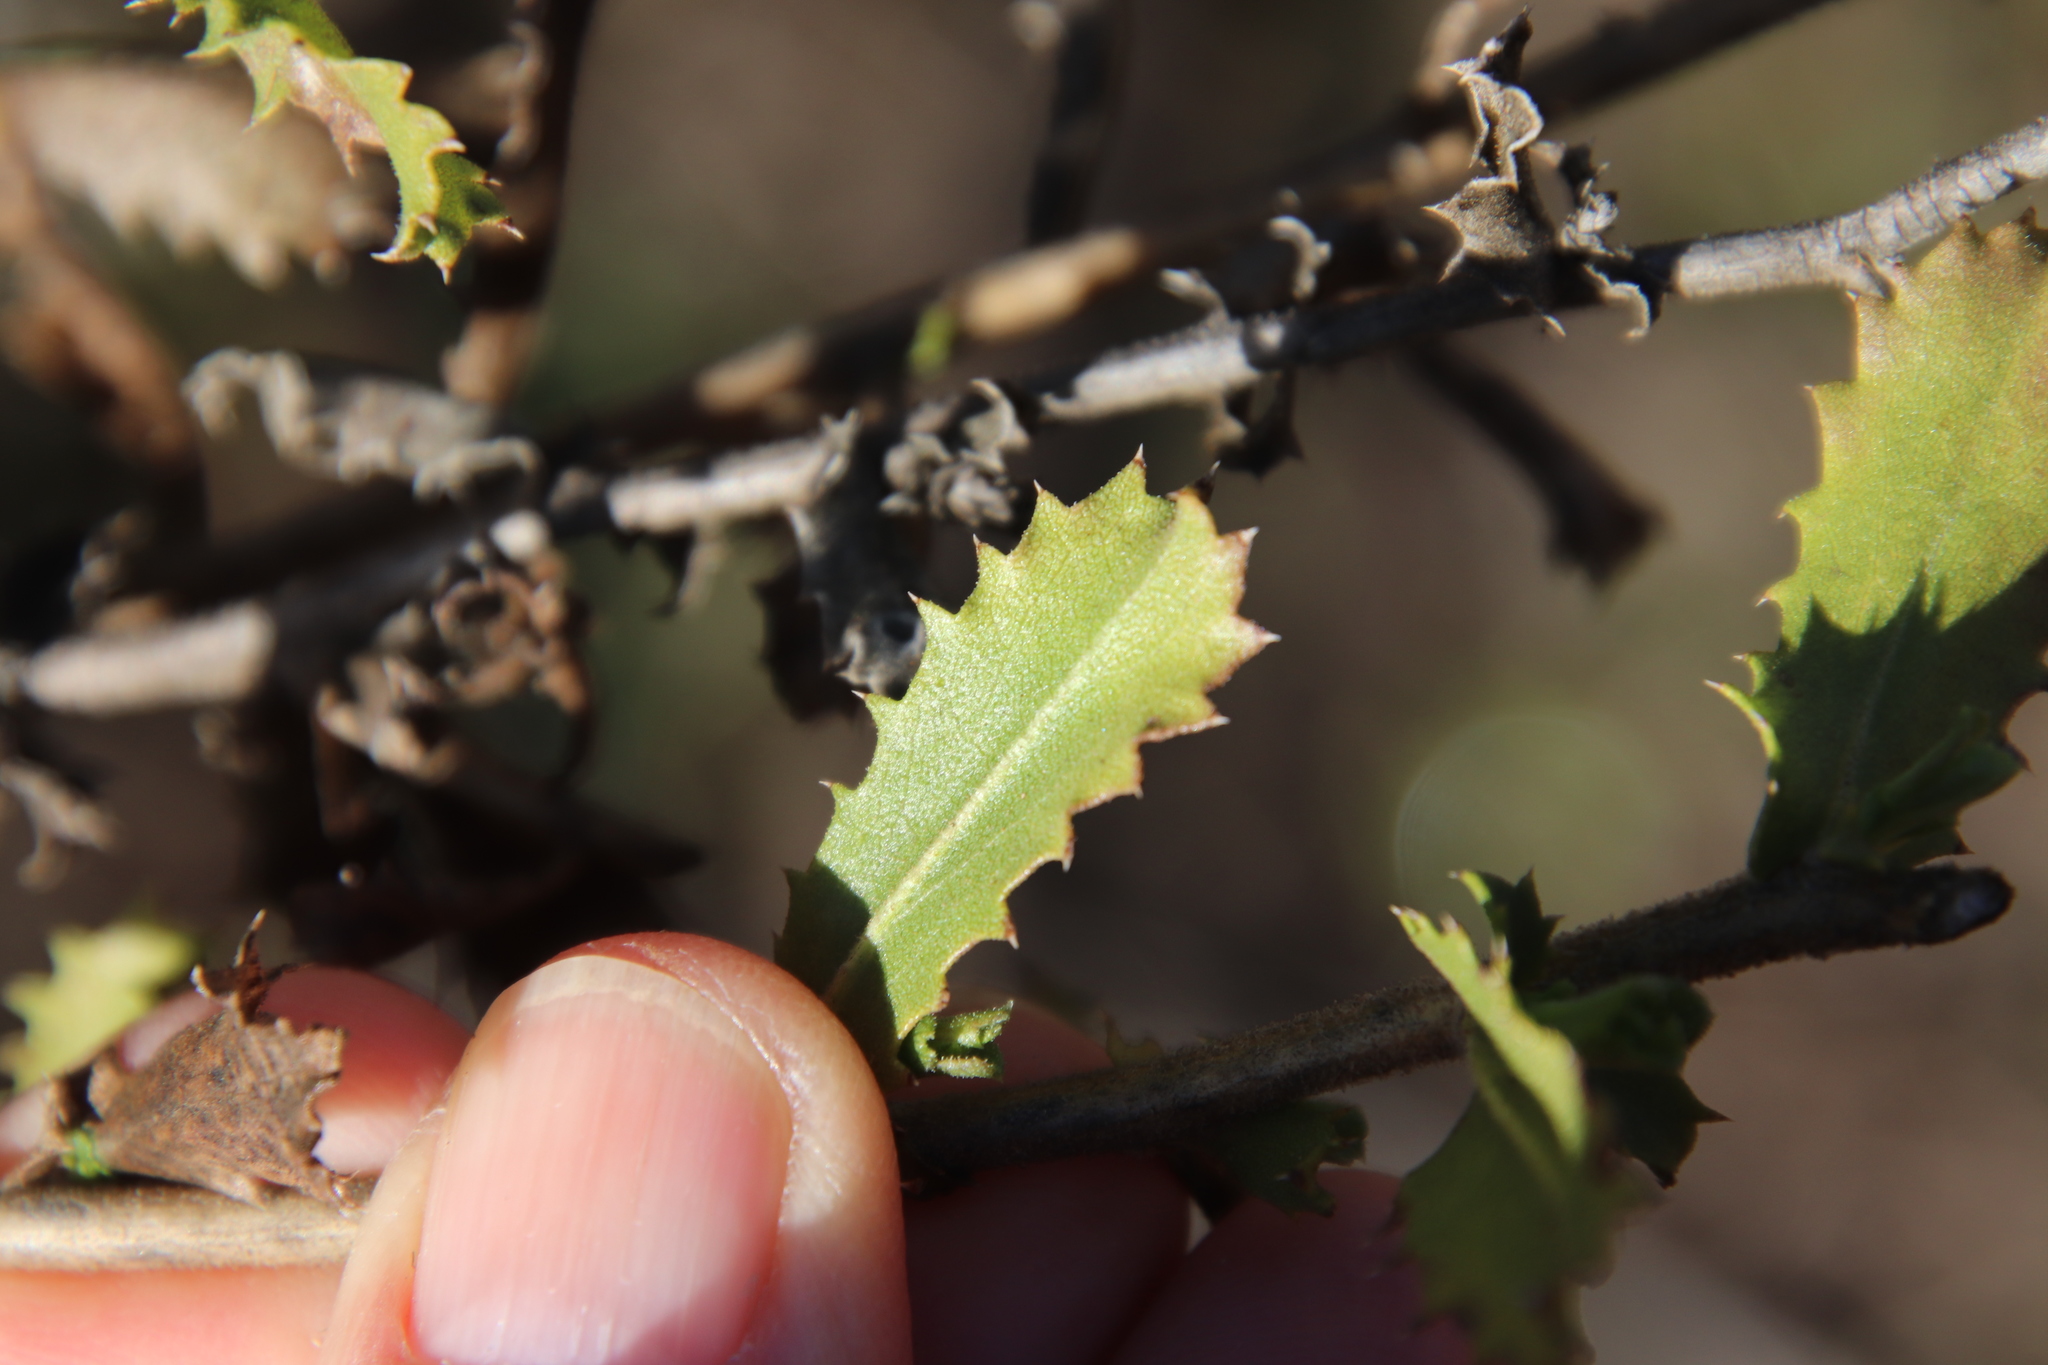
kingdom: Plantae
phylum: Tracheophyta
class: Magnoliopsida
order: Asterales
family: Asteraceae
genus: Hazardia
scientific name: Hazardia squarrosa
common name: Saw-tooth goldenbush
